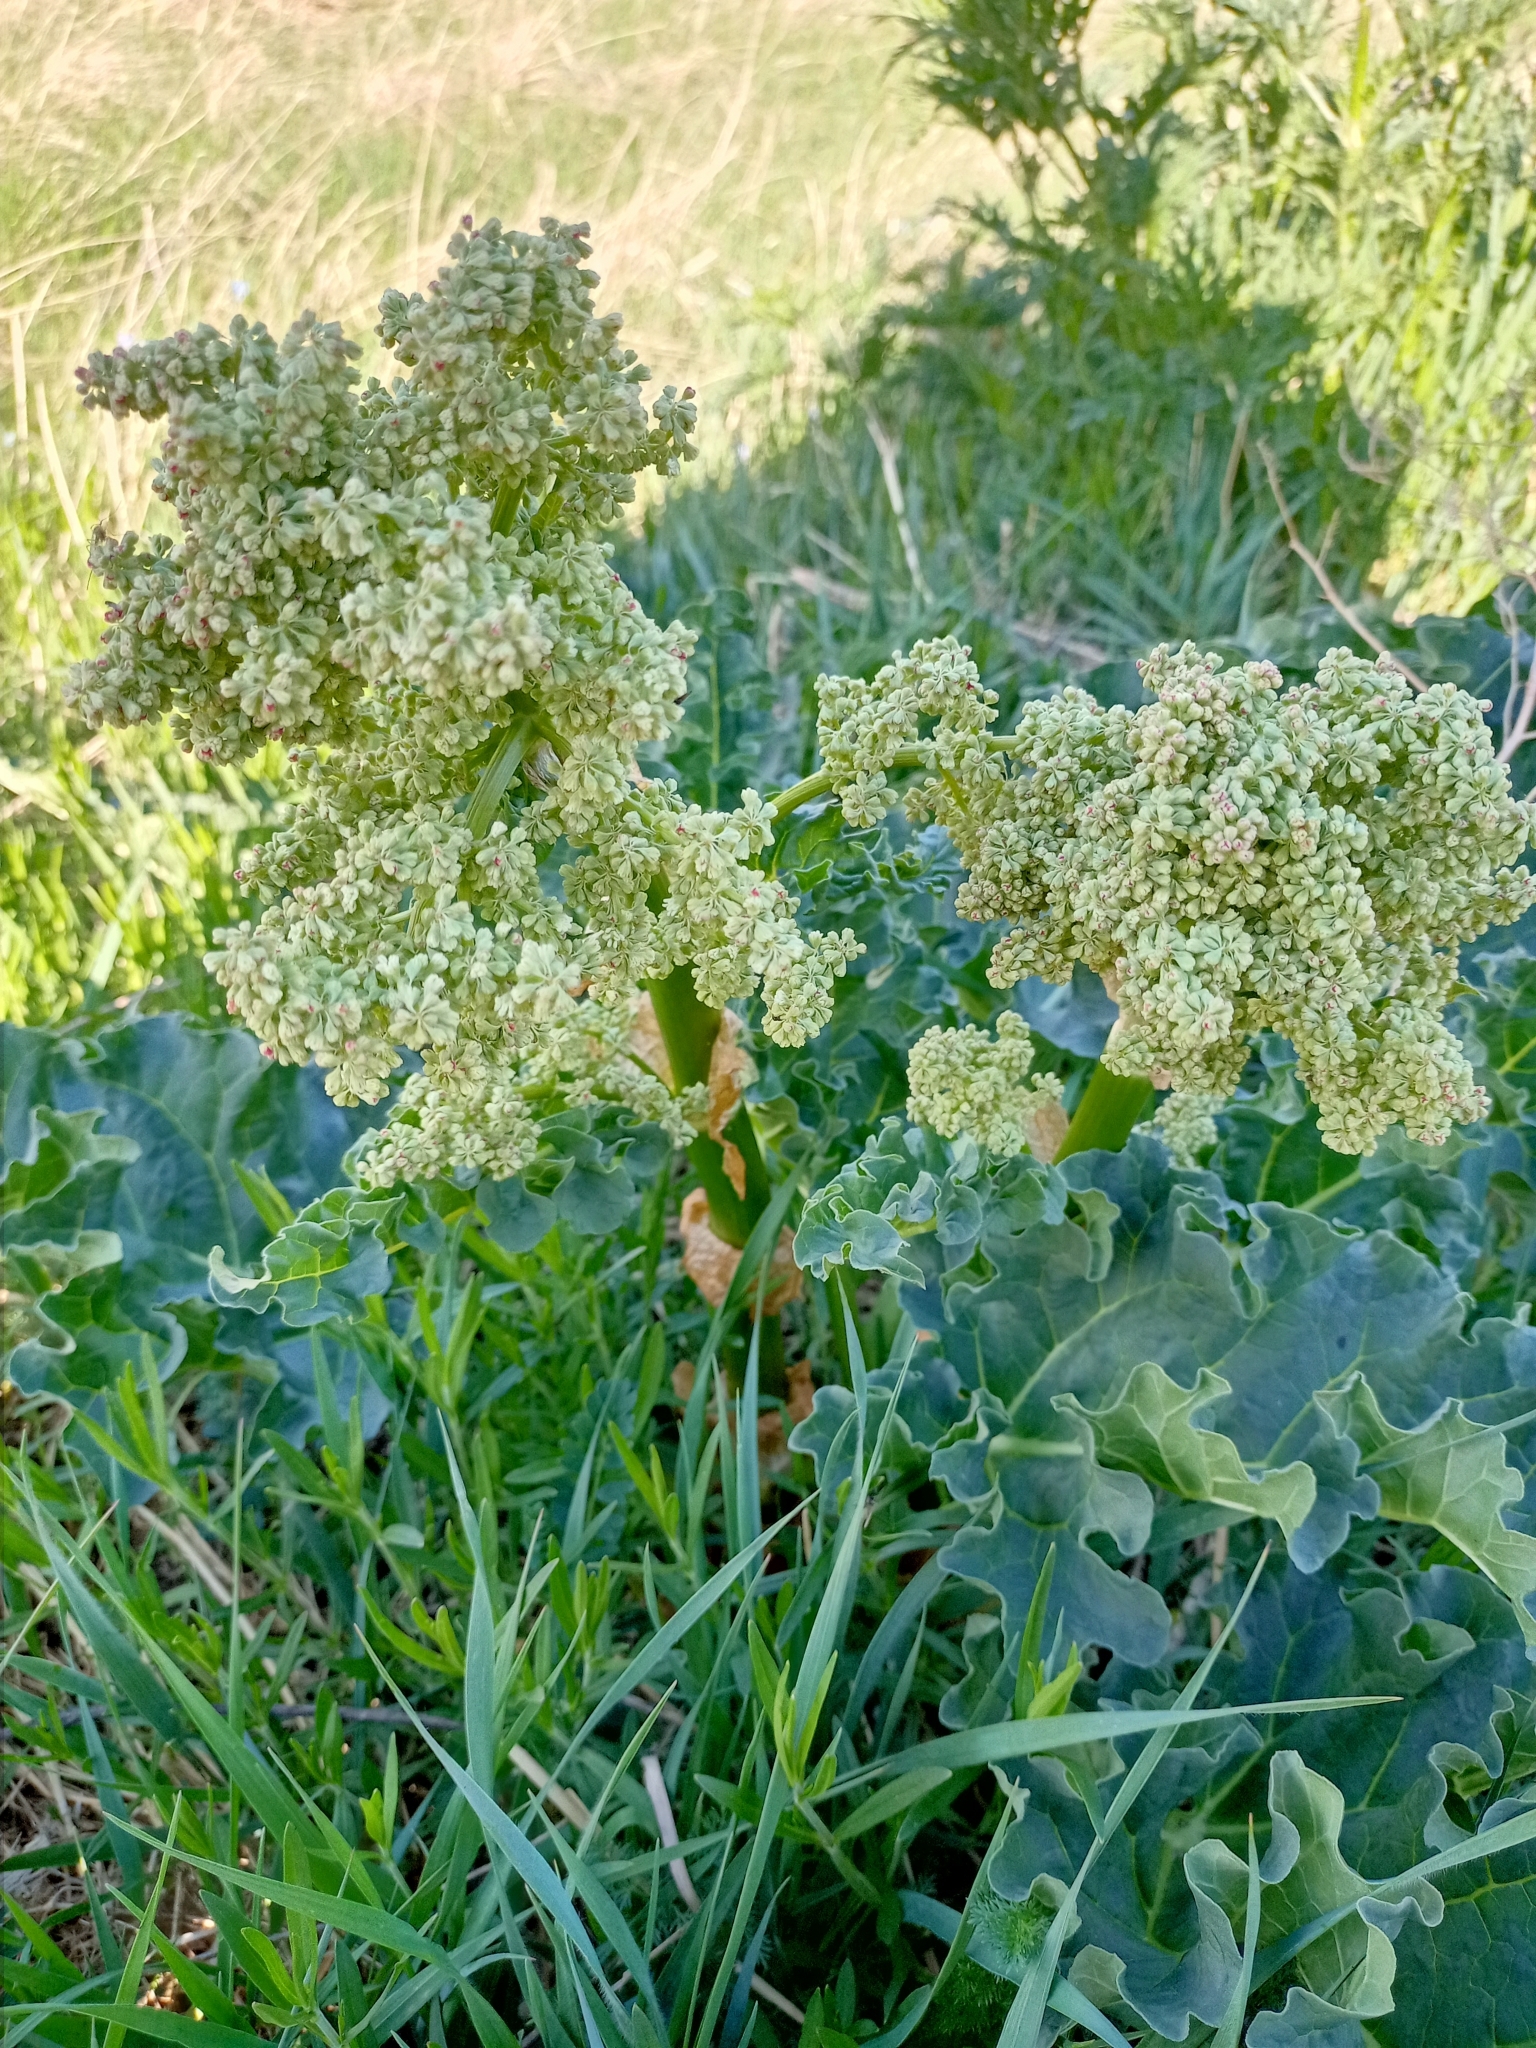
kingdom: Plantae
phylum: Tracheophyta
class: Magnoliopsida
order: Caryophyllales
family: Polygonaceae
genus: Rheum
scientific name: Rheum rhabarbarum
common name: Garden rhubarb
